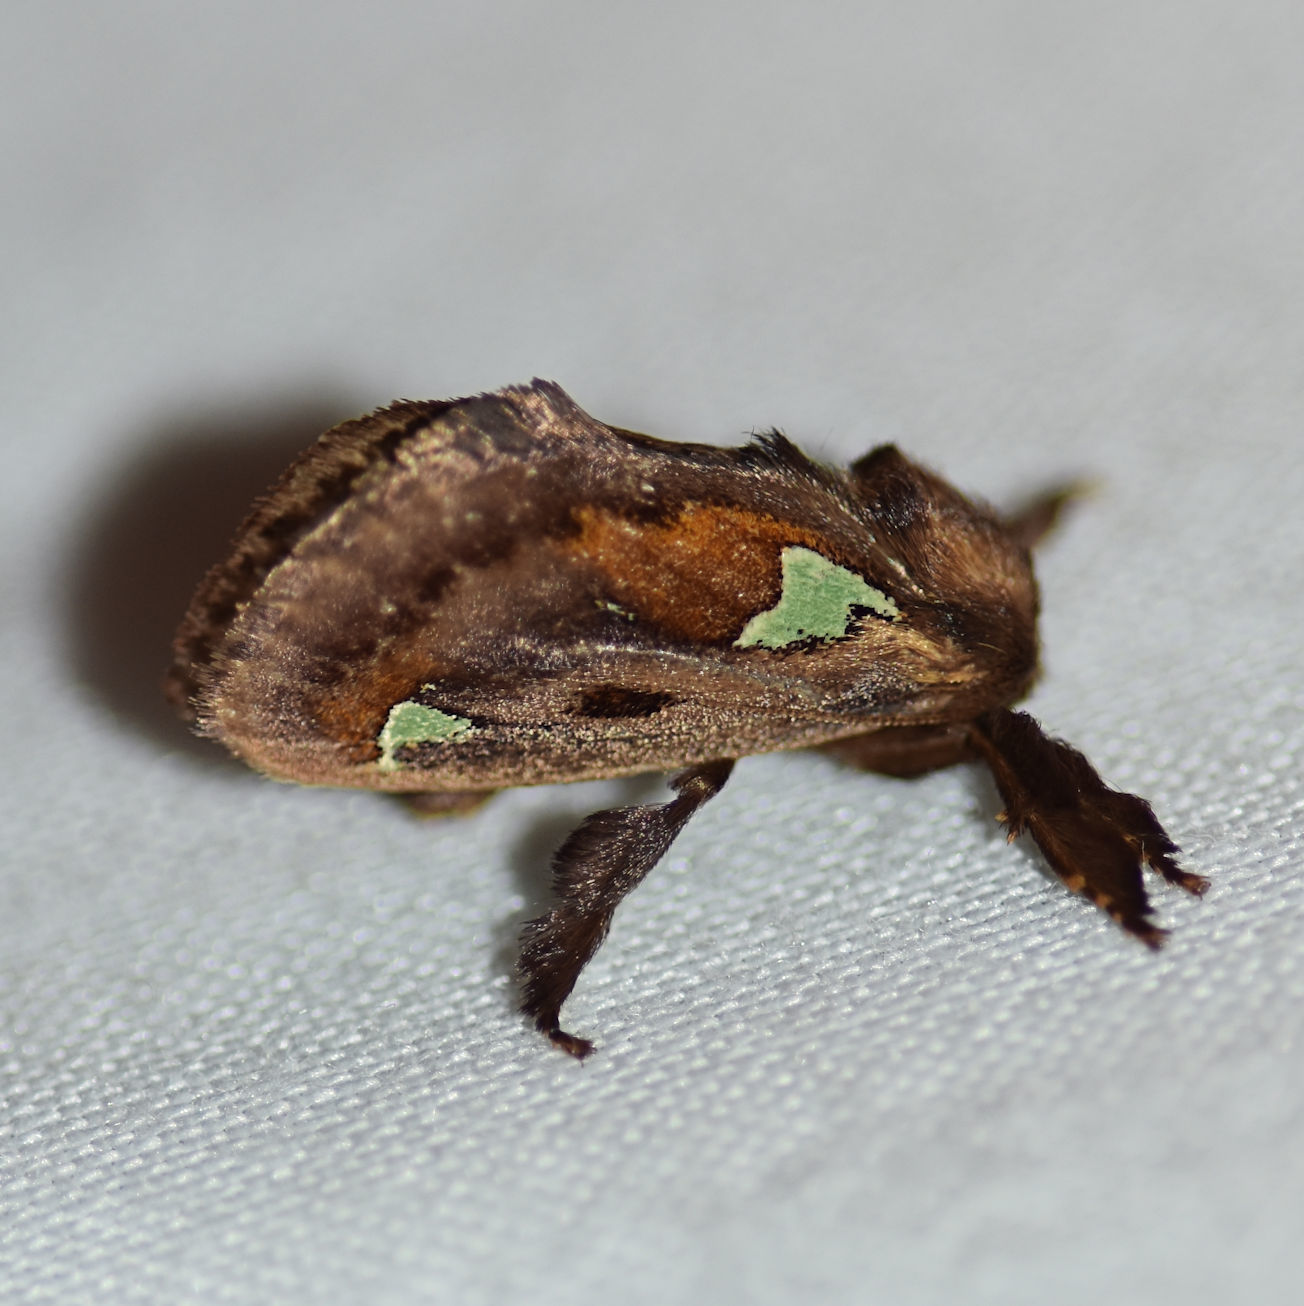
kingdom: Animalia
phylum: Arthropoda
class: Insecta
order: Lepidoptera
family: Limacodidae
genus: Euclea
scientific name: Euclea delphinii
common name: Spiny oak-slug moth
